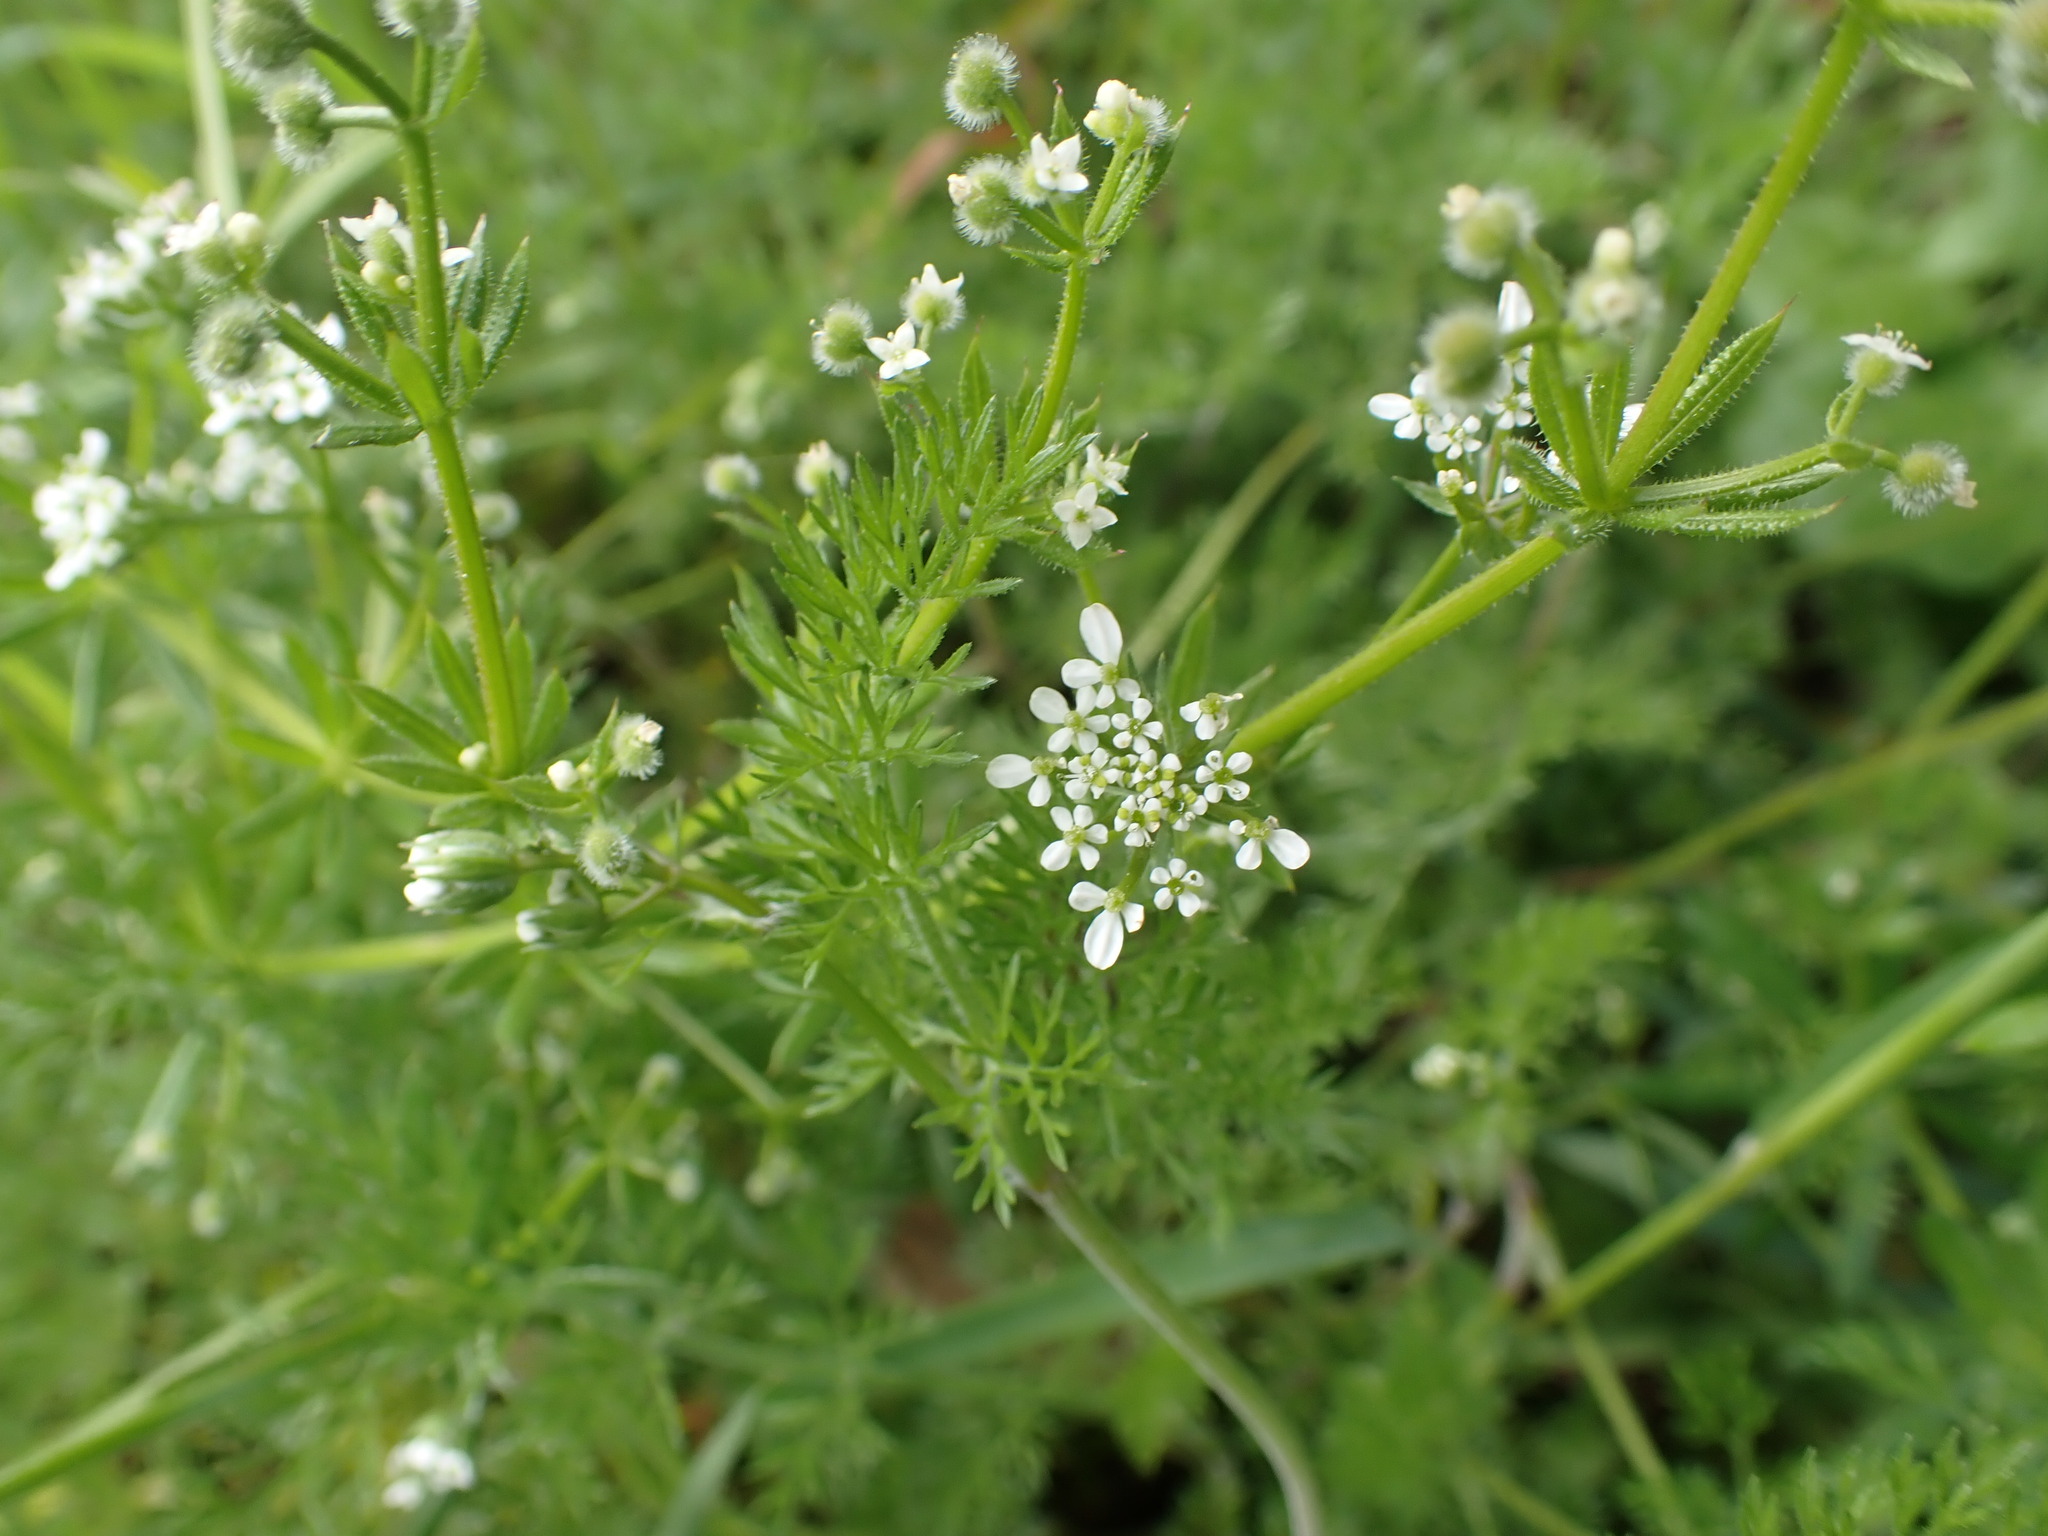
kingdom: Plantae
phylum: Tracheophyta
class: Magnoliopsida
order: Apiales
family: Apiaceae
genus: Scandix
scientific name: Scandix pecten-veneris
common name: Shepherd's-needle
